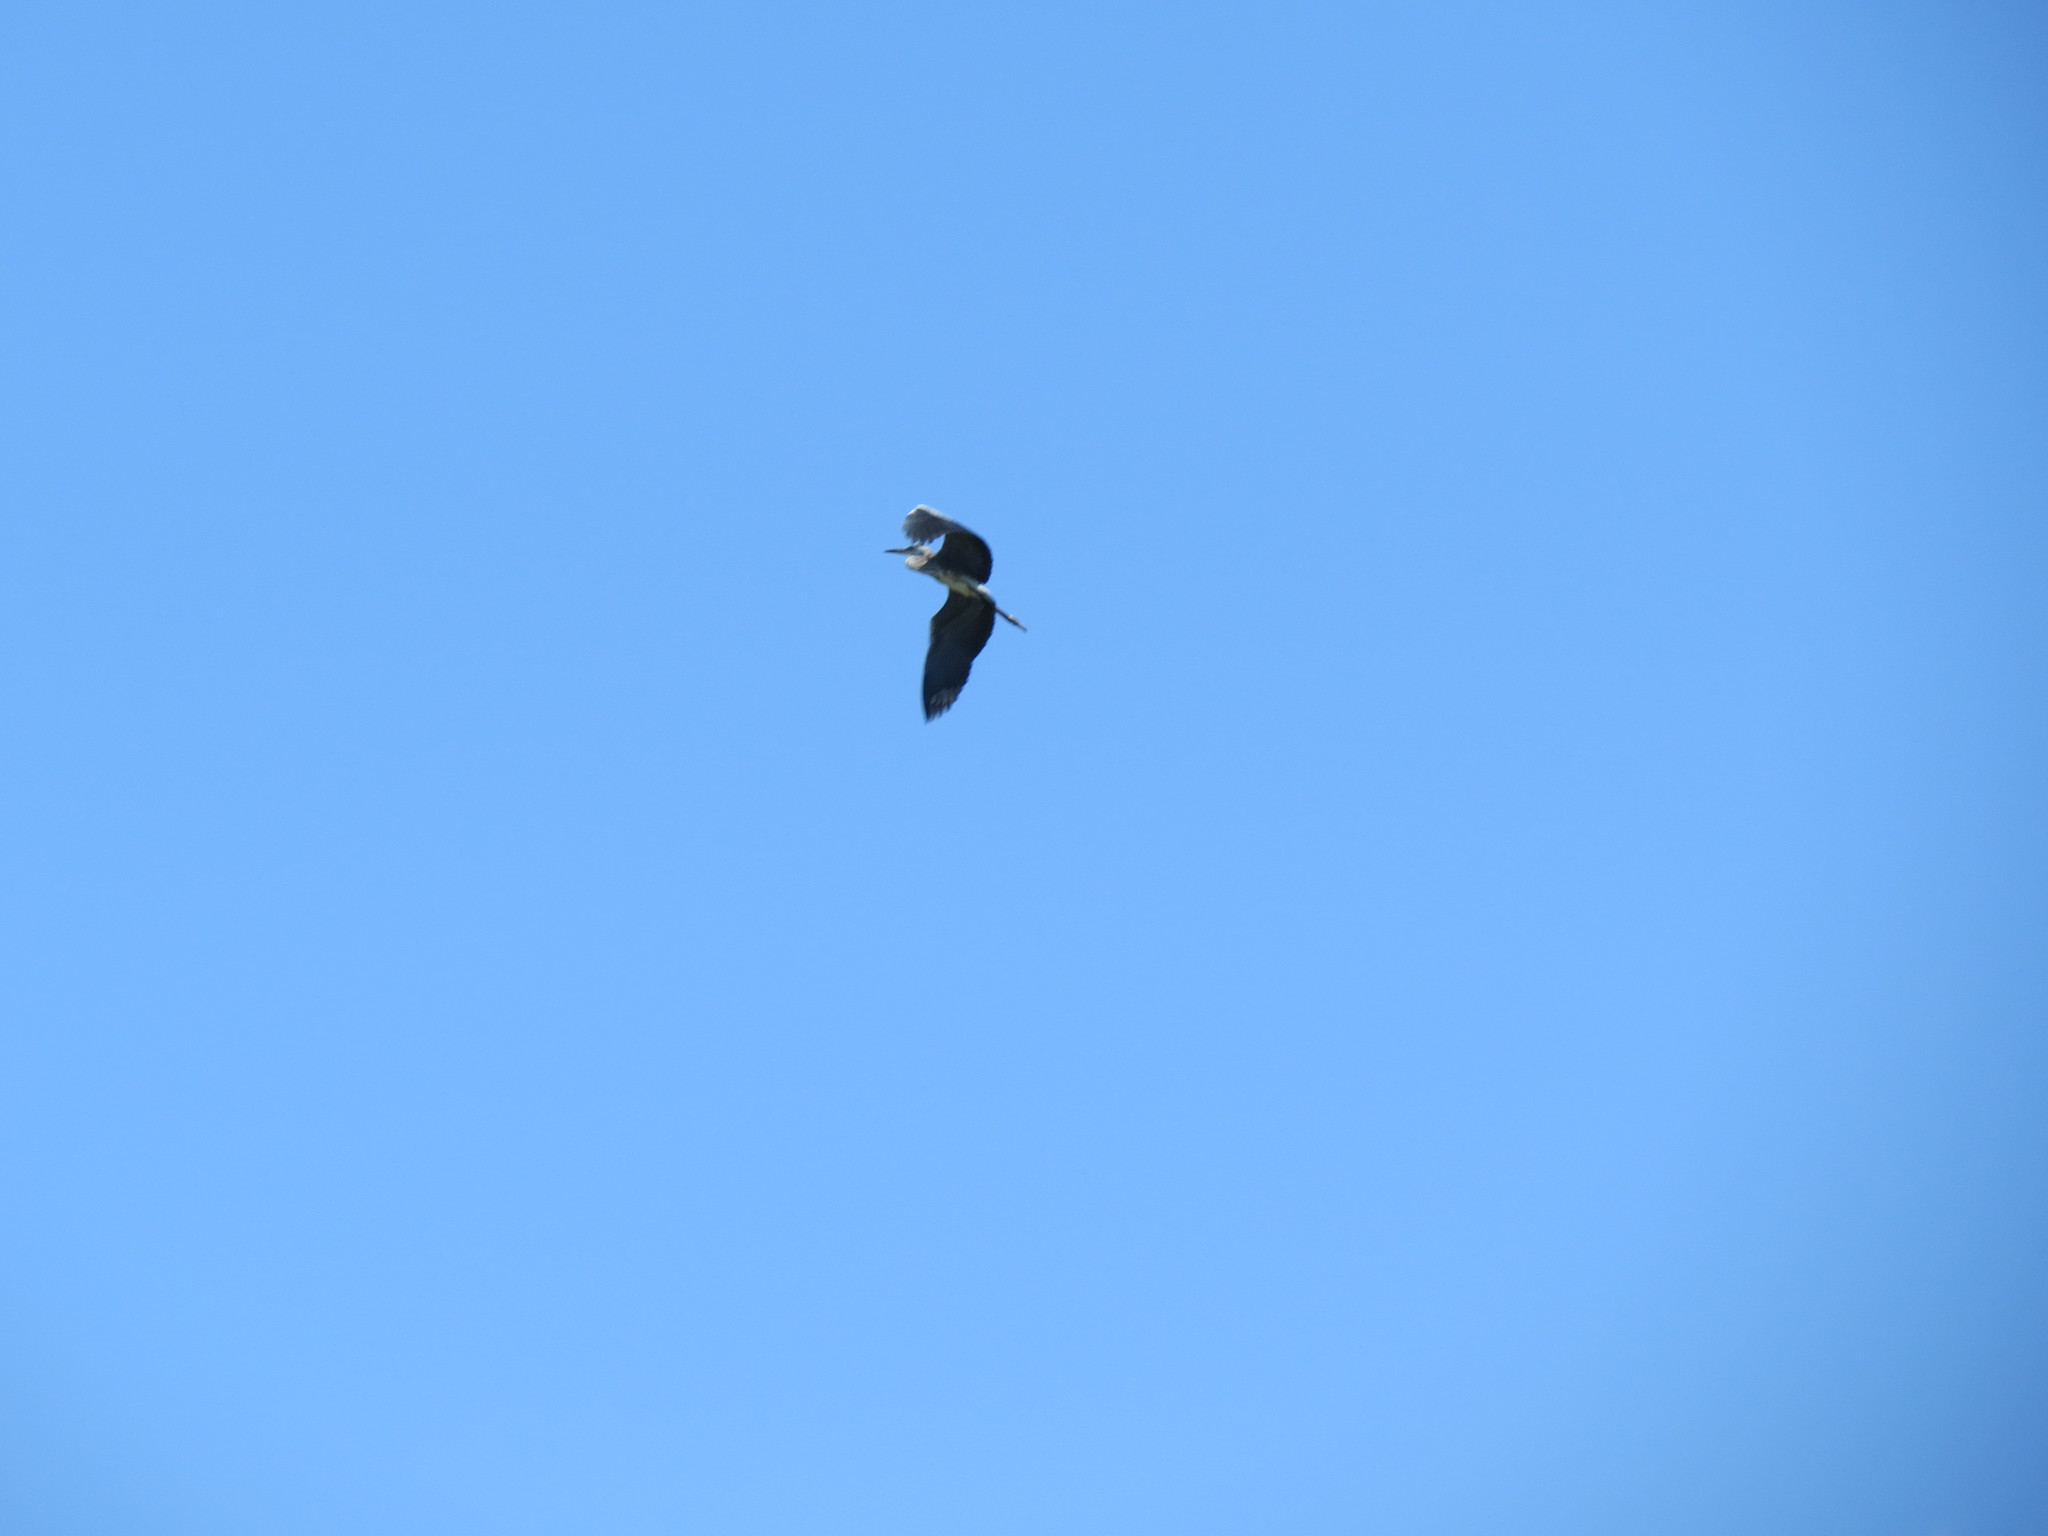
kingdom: Animalia
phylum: Chordata
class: Aves
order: Pelecaniformes
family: Ardeidae
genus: Ardea
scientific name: Ardea cinerea
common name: Grey heron
